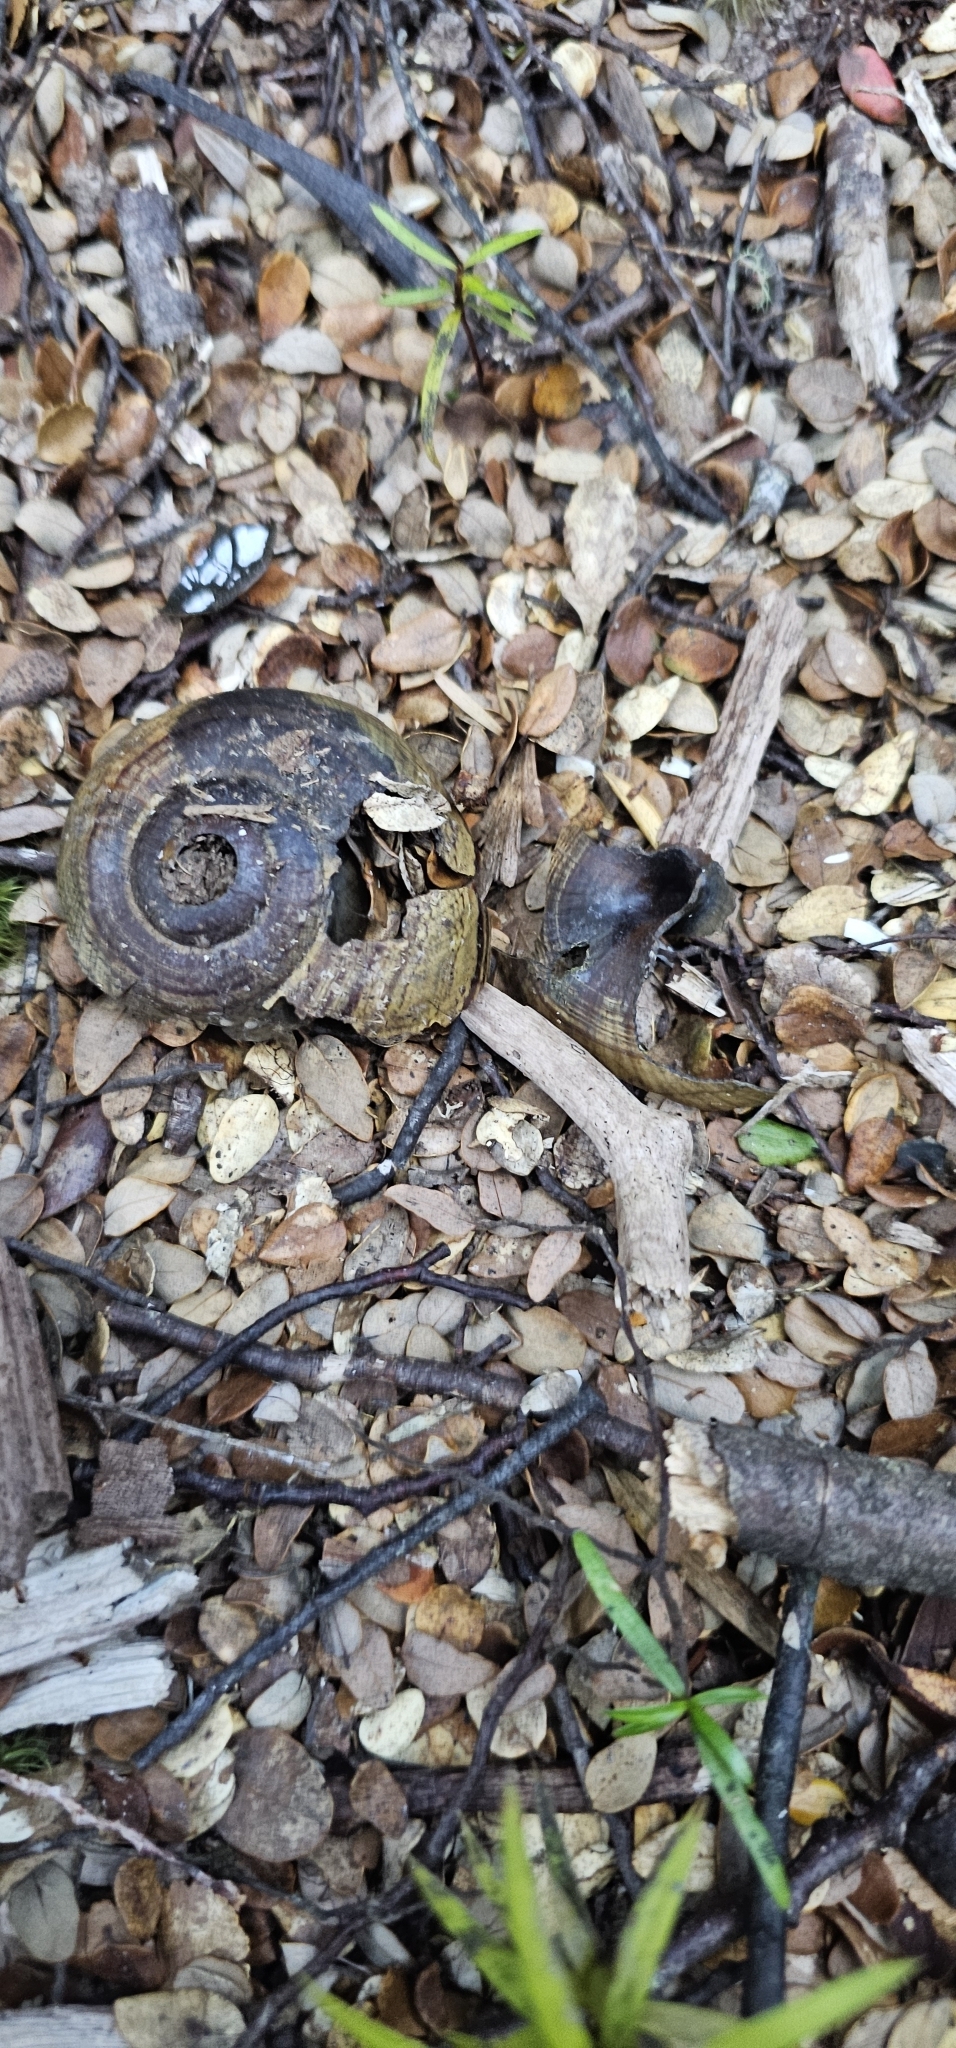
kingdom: Animalia
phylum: Mollusca
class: Gastropoda
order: Stylommatophora
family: Rhytididae
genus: Powelliphanta
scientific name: Powelliphanta hochstetteri
